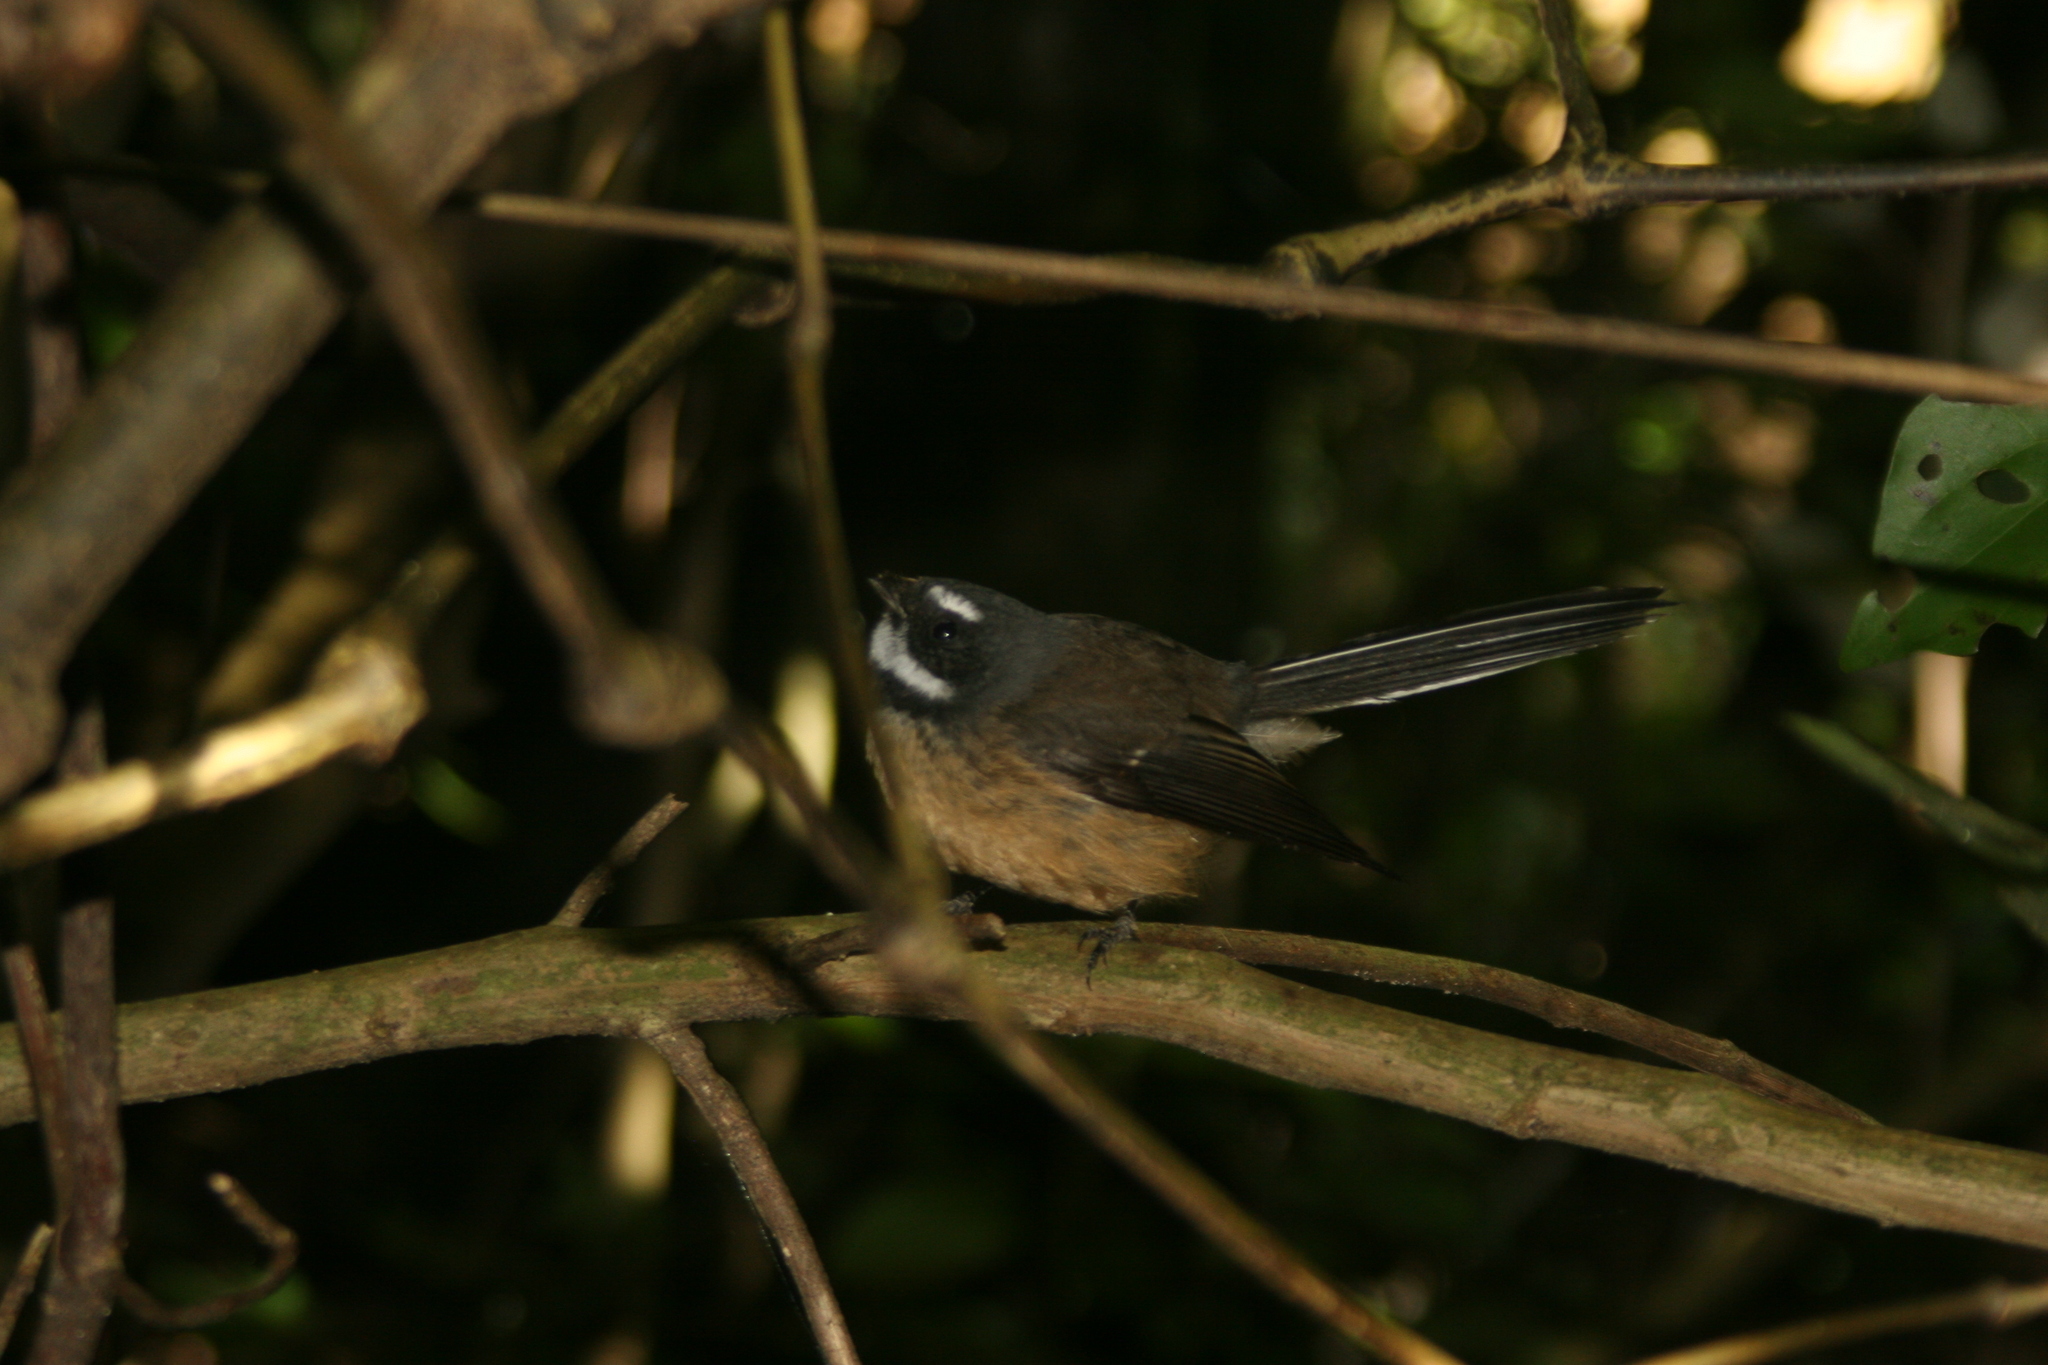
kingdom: Animalia
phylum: Chordata
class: Aves
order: Passeriformes
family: Rhipiduridae
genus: Rhipidura
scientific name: Rhipidura fuliginosa
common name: New zealand fantail
